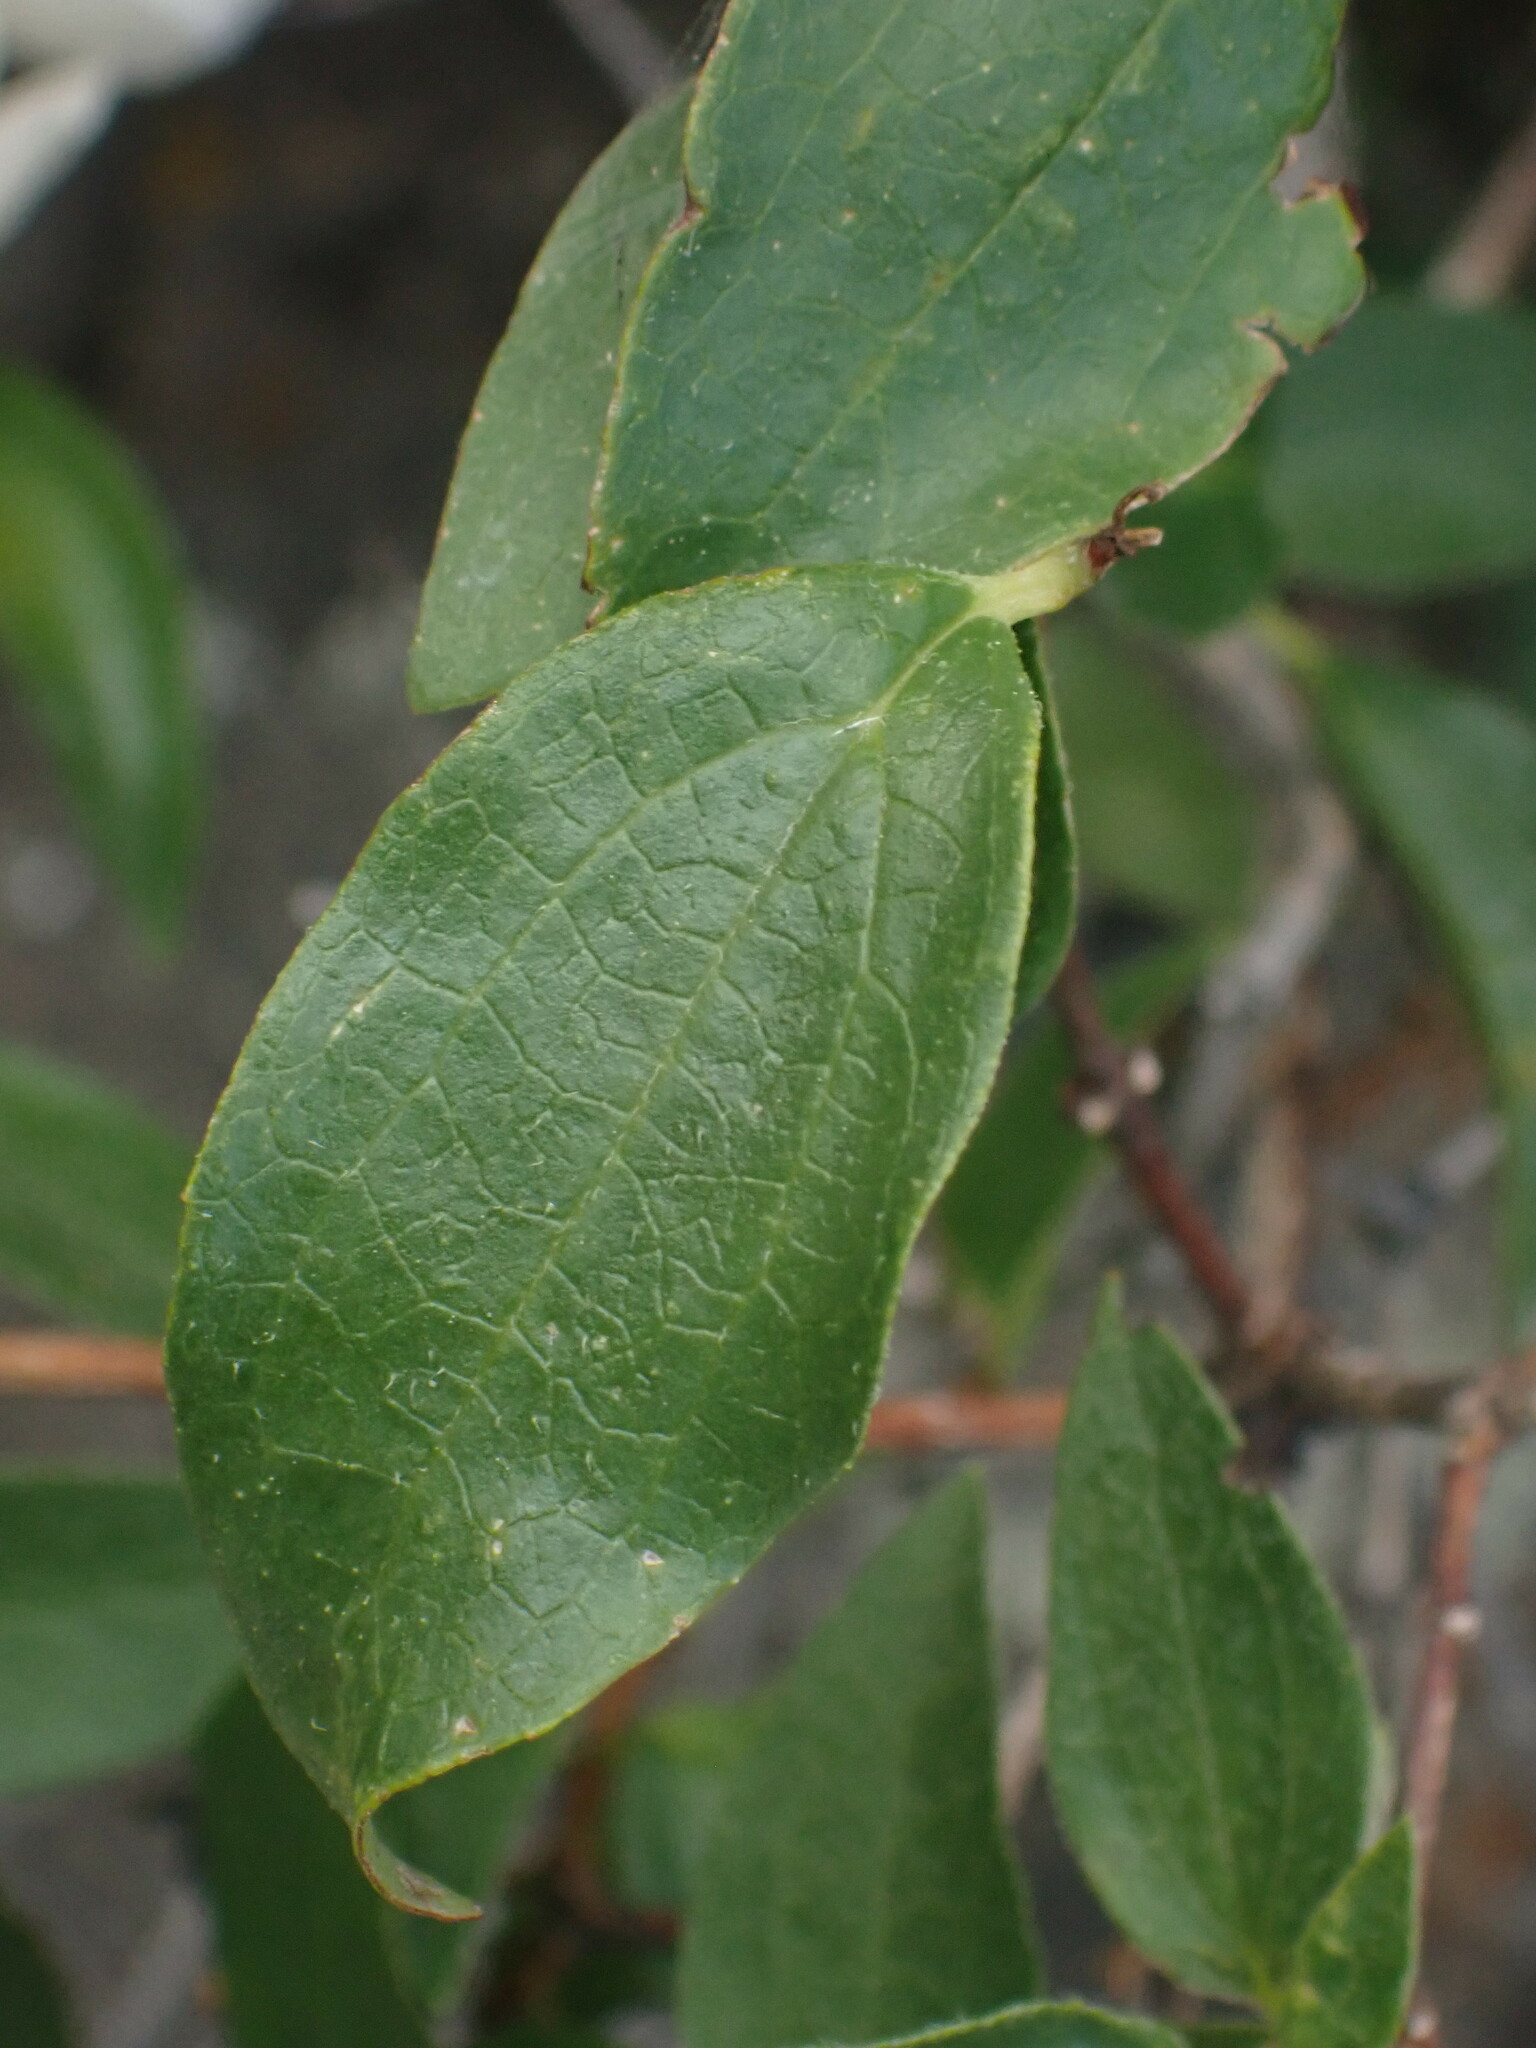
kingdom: Plantae
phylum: Tracheophyta
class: Magnoliopsida
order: Cornales
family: Hydrangeaceae
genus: Philadelphus
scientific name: Philadelphus lewisii
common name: Lewis's mock orange
